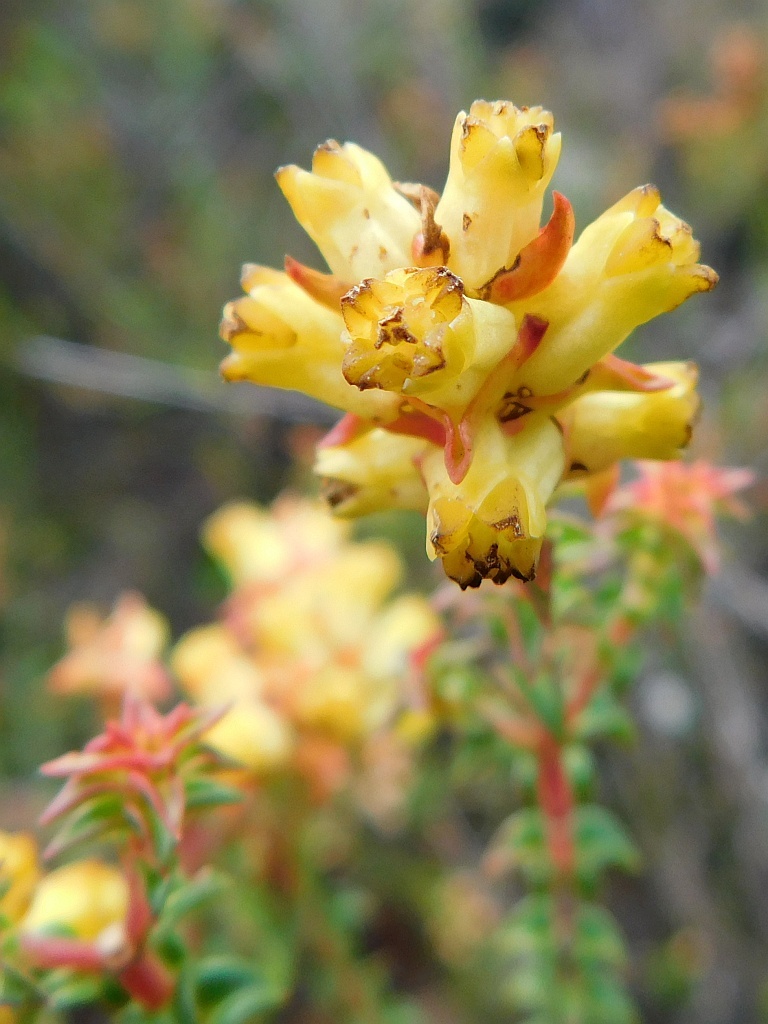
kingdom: Plantae
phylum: Tracheophyta
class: Magnoliopsida
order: Myrtales
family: Penaeaceae
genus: Penaea
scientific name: Penaea mucronata
